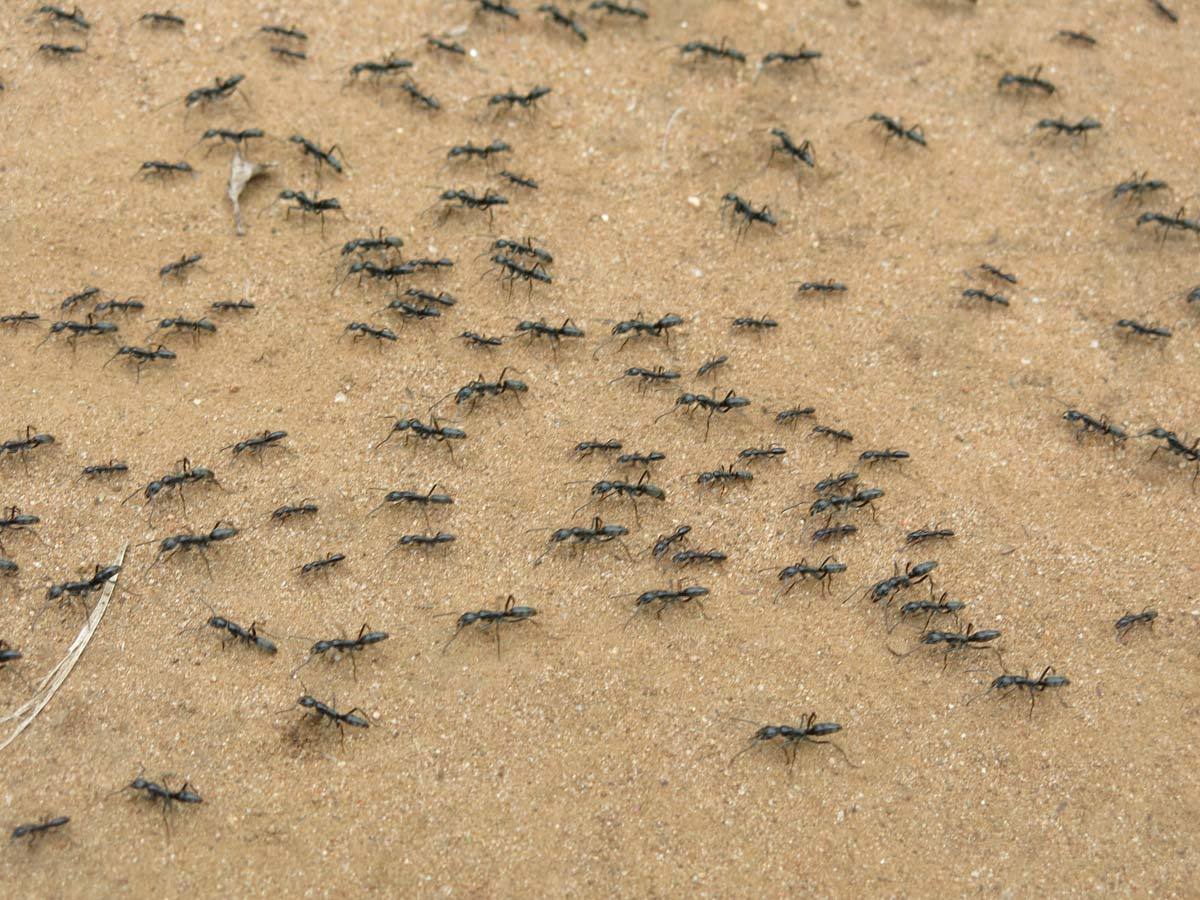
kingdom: Animalia
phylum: Arthropoda
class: Insecta
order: Hymenoptera
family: Formicidae
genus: Megaponera
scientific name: Megaponera analis
